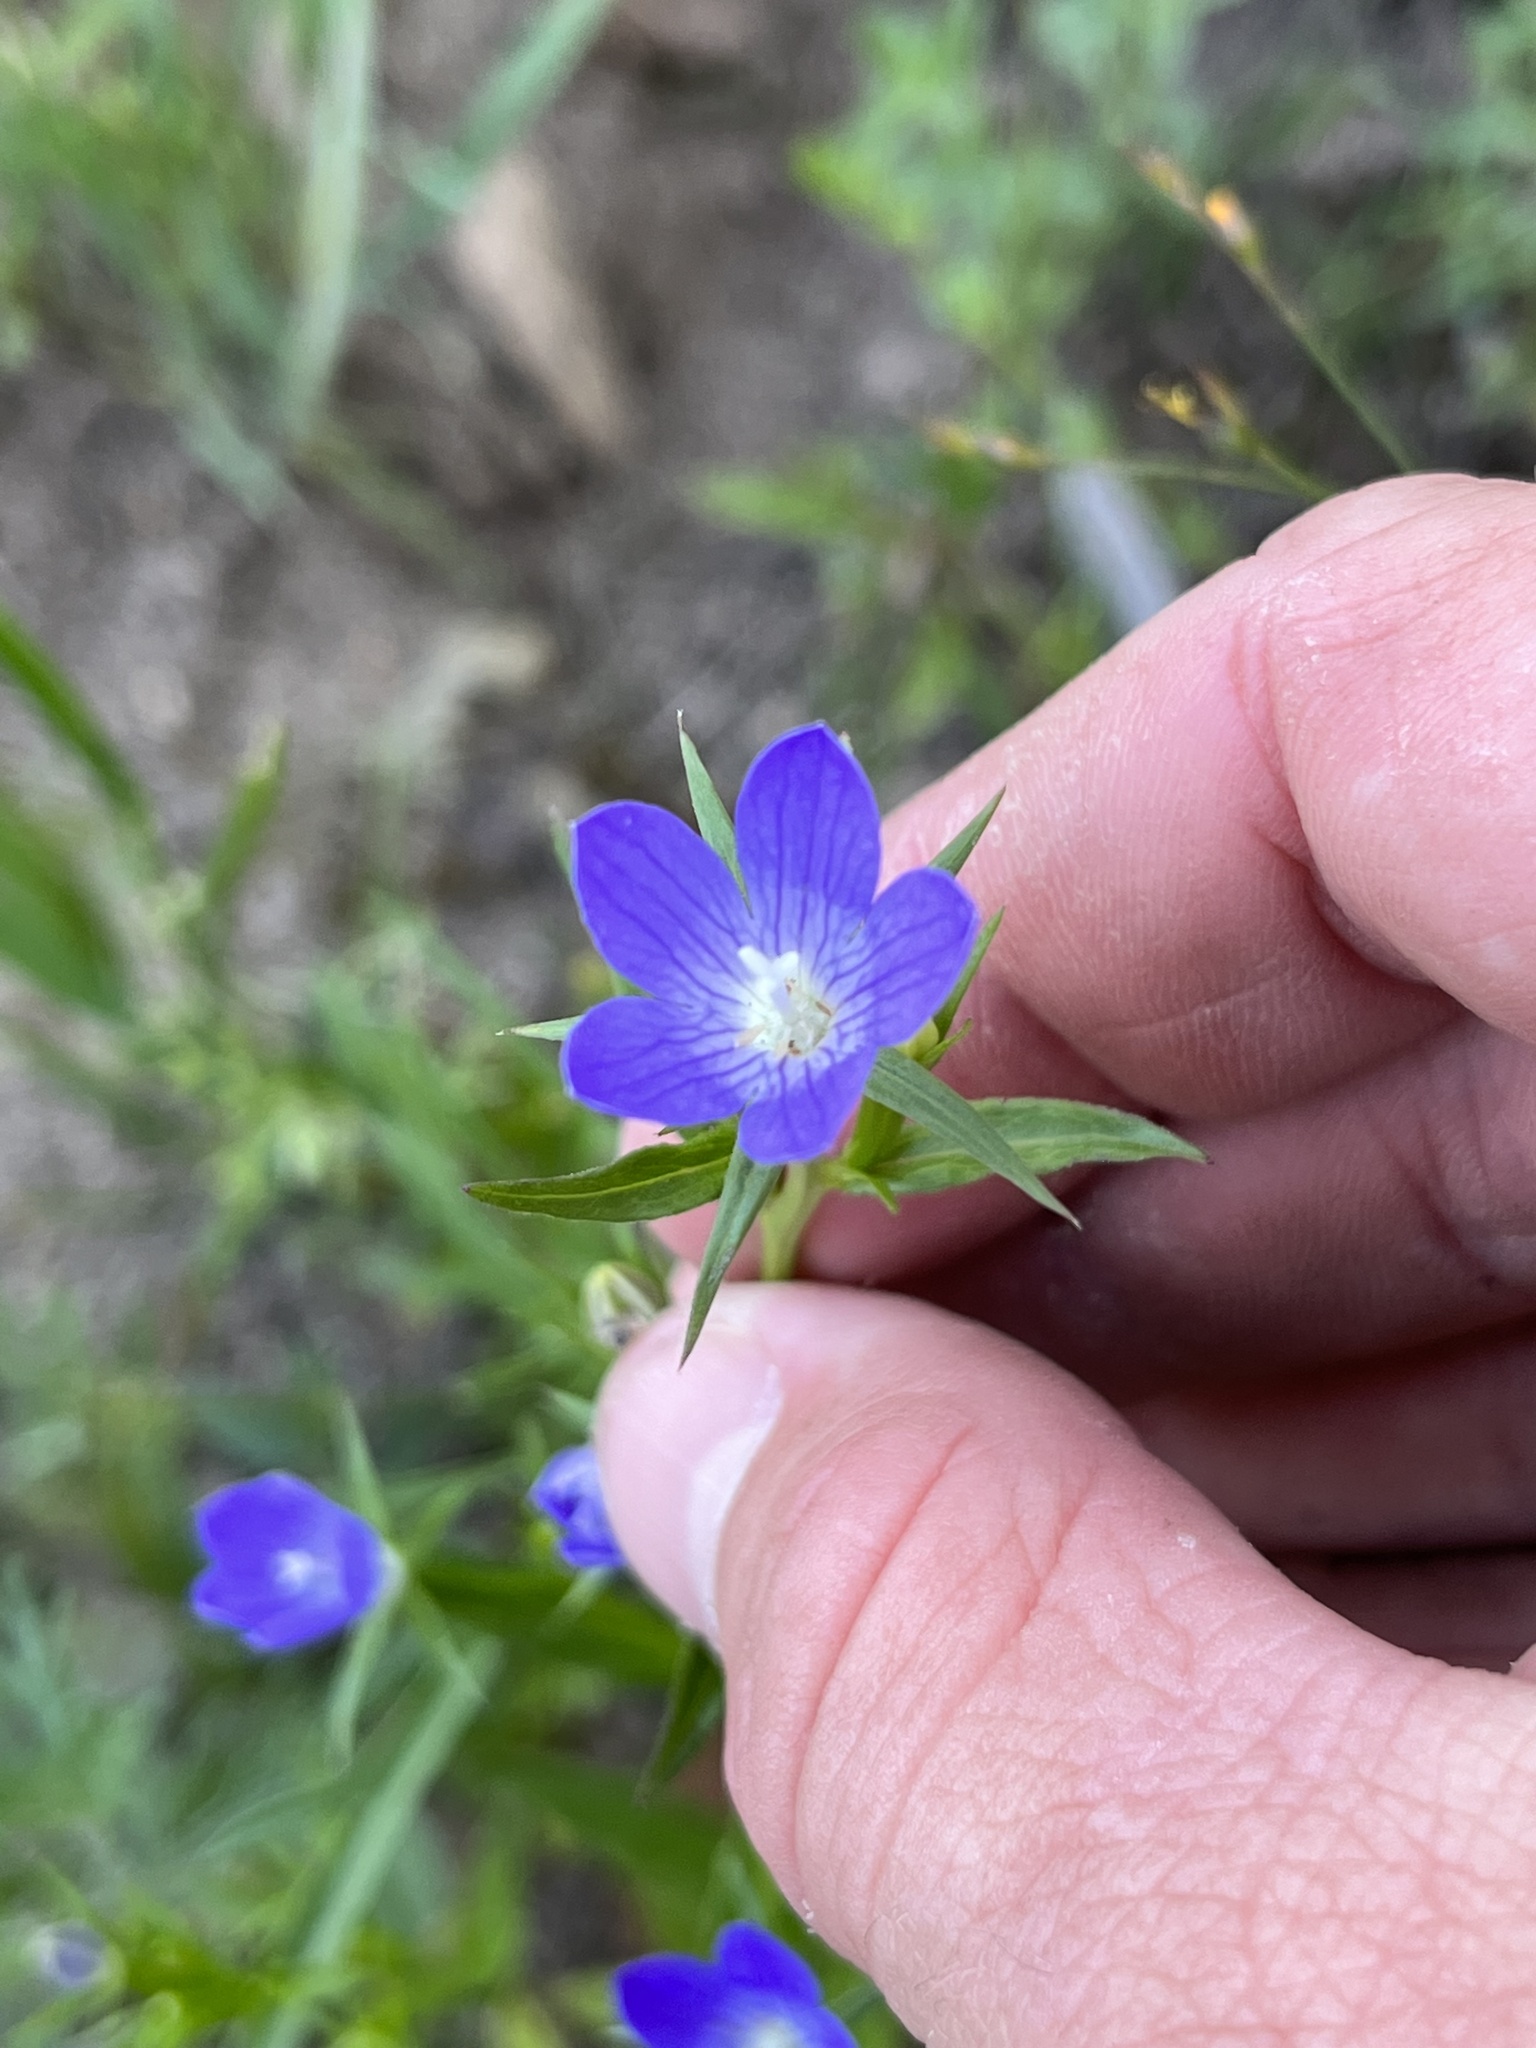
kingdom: Plantae
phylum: Tracheophyta
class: Magnoliopsida
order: Asterales
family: Campanulaceae
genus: Triodanis
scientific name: Triodanis coloradoensis
